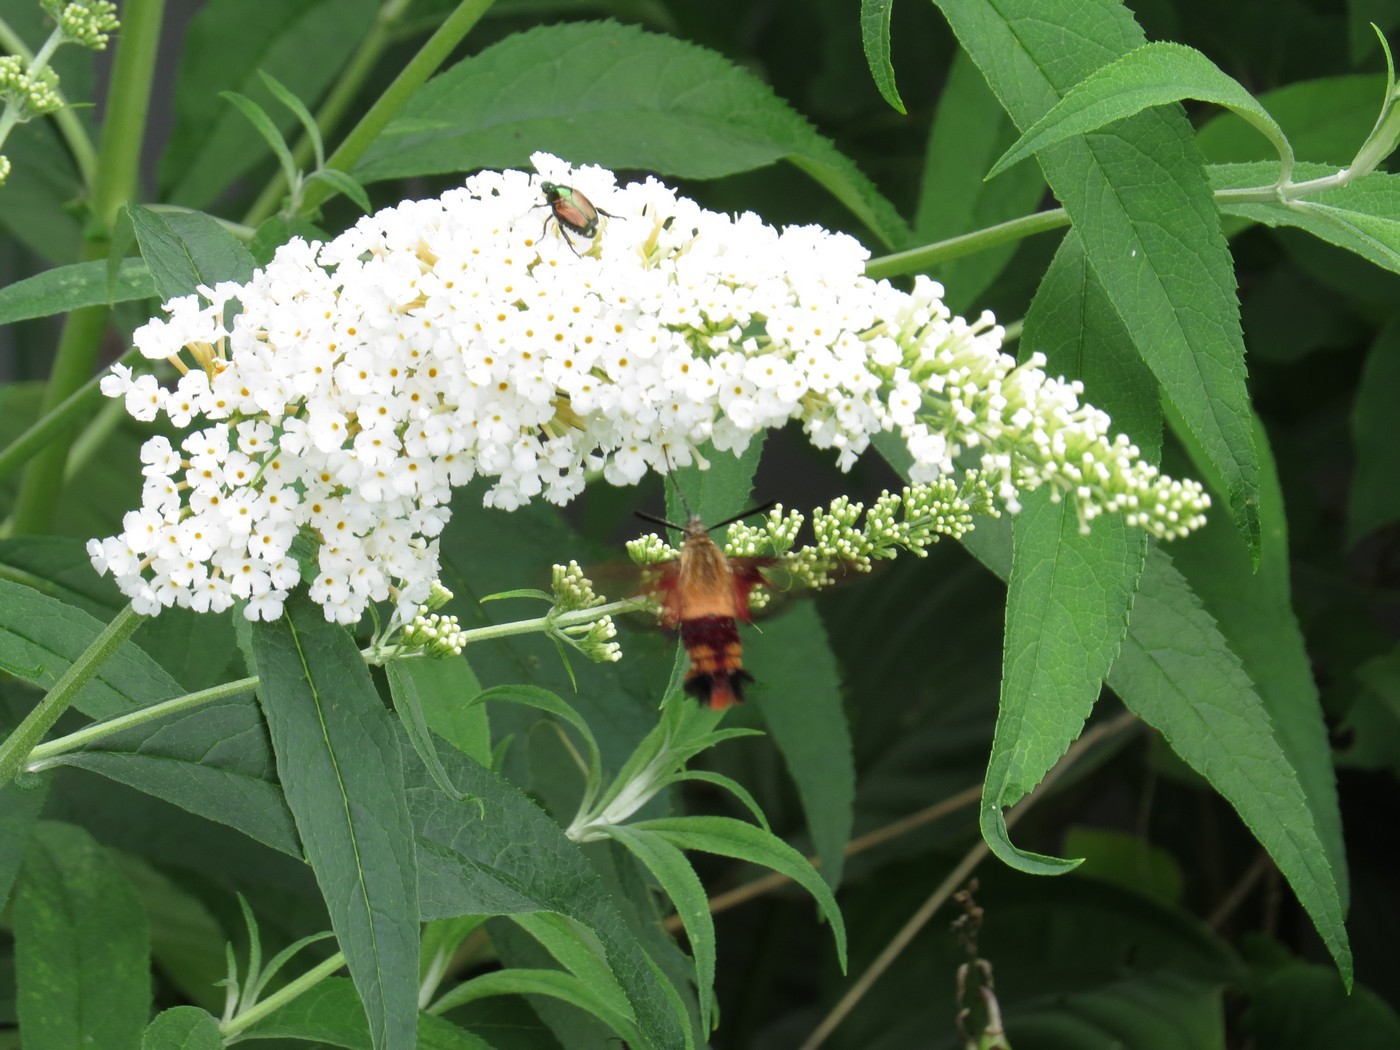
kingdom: Animalia
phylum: Arthropoda
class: Insecta
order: Lepidoptera
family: Sphingidae
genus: Hemaris
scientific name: Hemaris thysbe
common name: Common clear-wing
